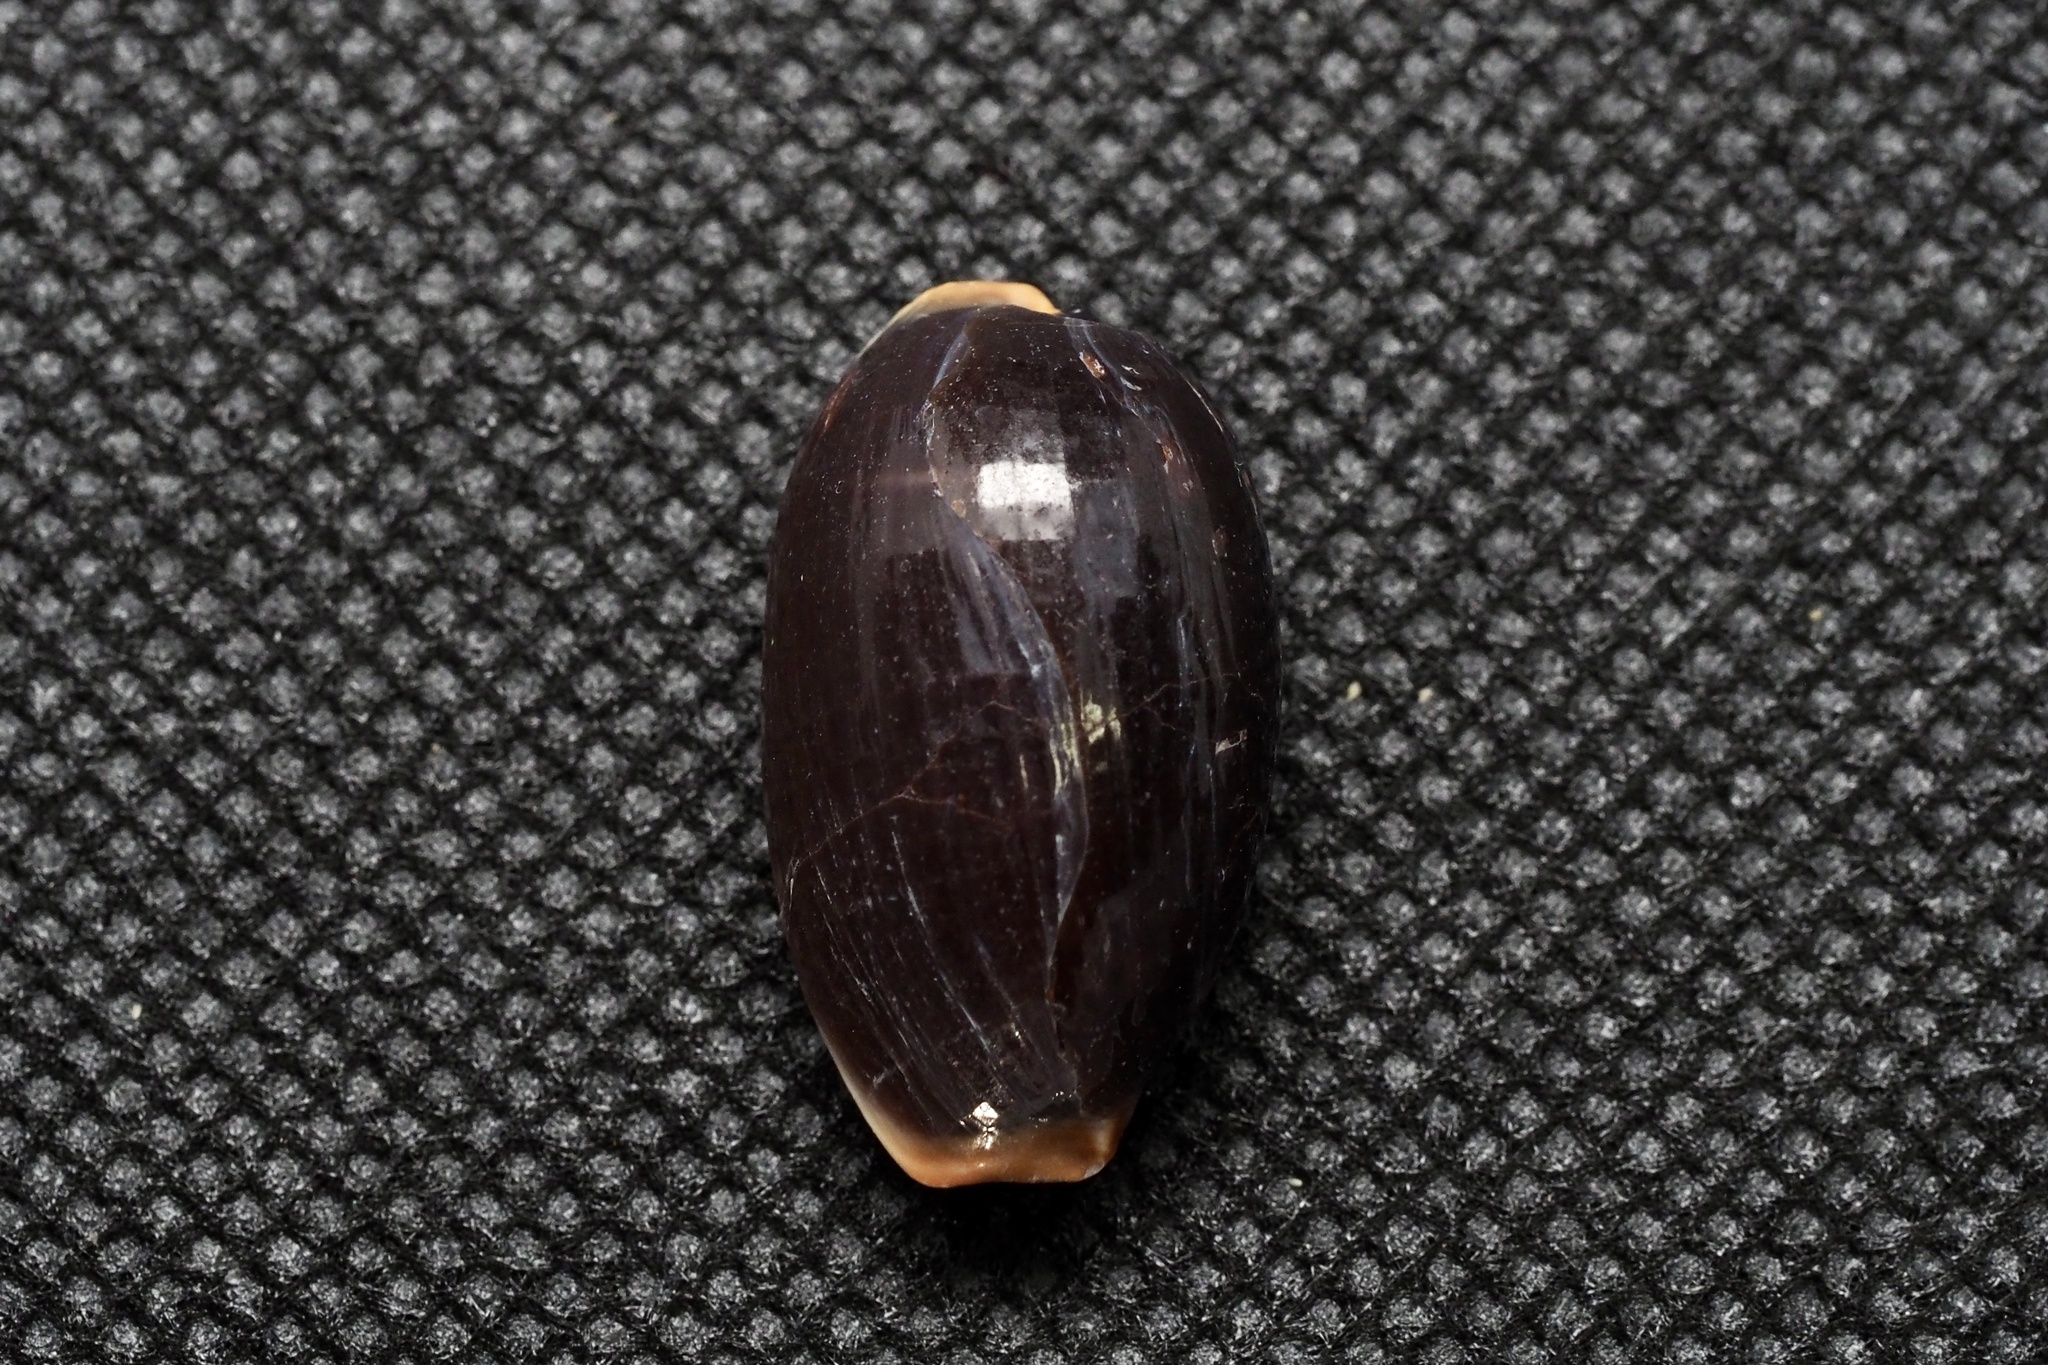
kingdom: Animalia
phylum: Mollusca
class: Gastropoda
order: Littorinimorpha
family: Cypraeidae
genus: Staphylaea
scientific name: Staphylaea limacina
